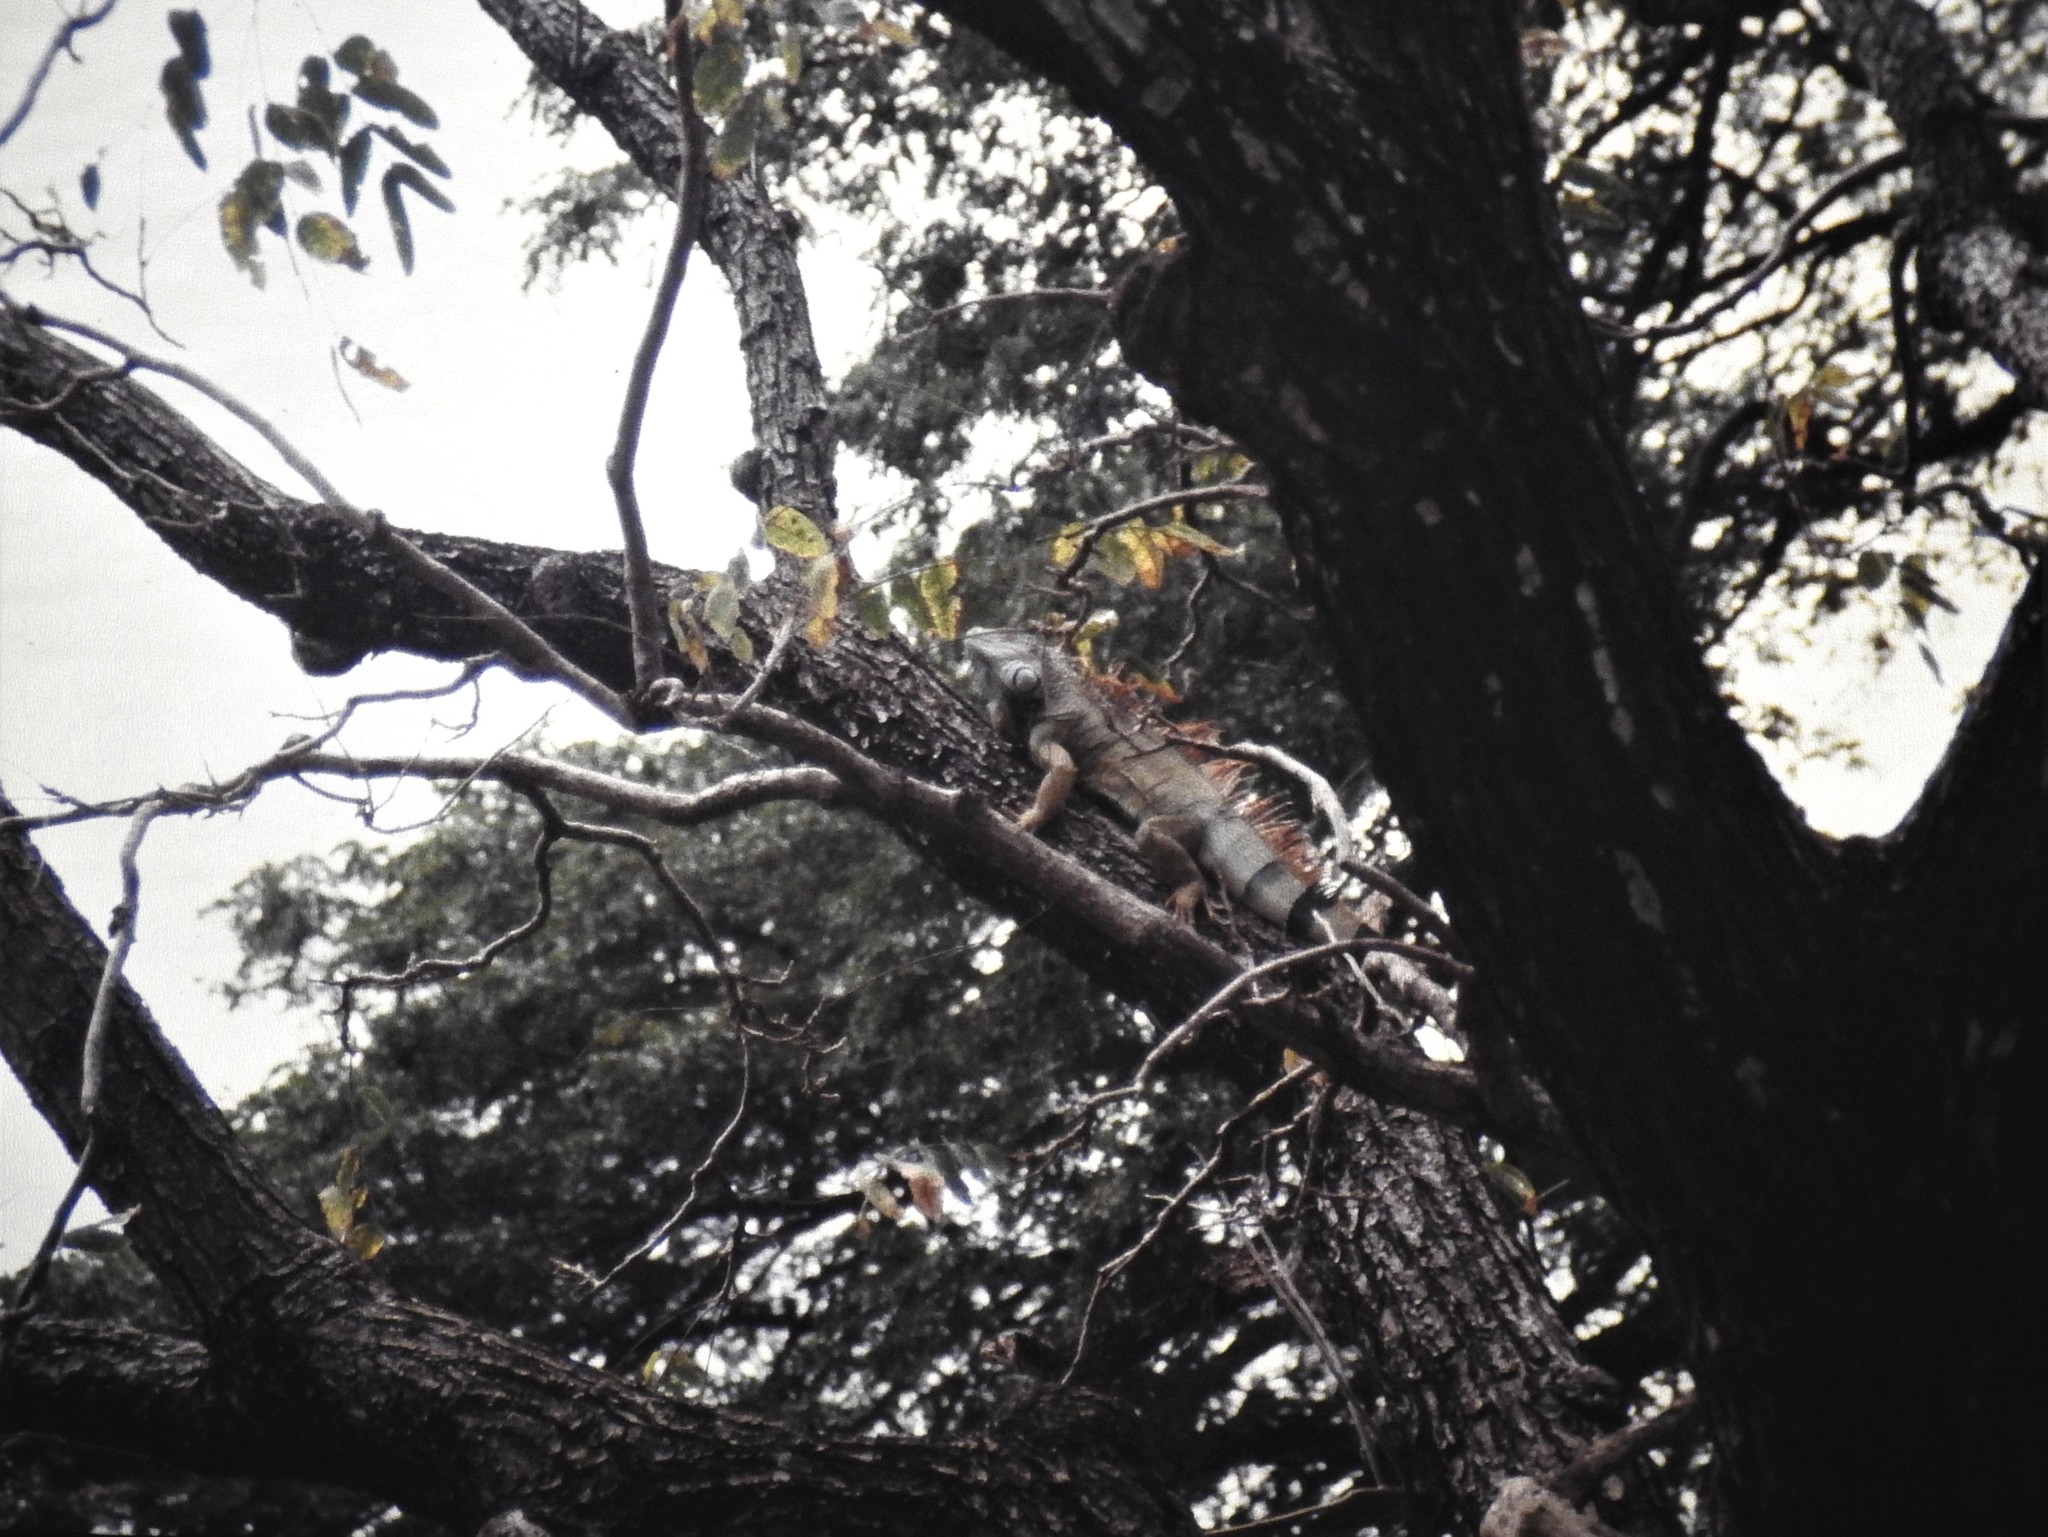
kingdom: Animalia
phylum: Chordata
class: Squamata
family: Iguanidae
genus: Iguana
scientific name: Iguana iguana
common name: Green iguana
